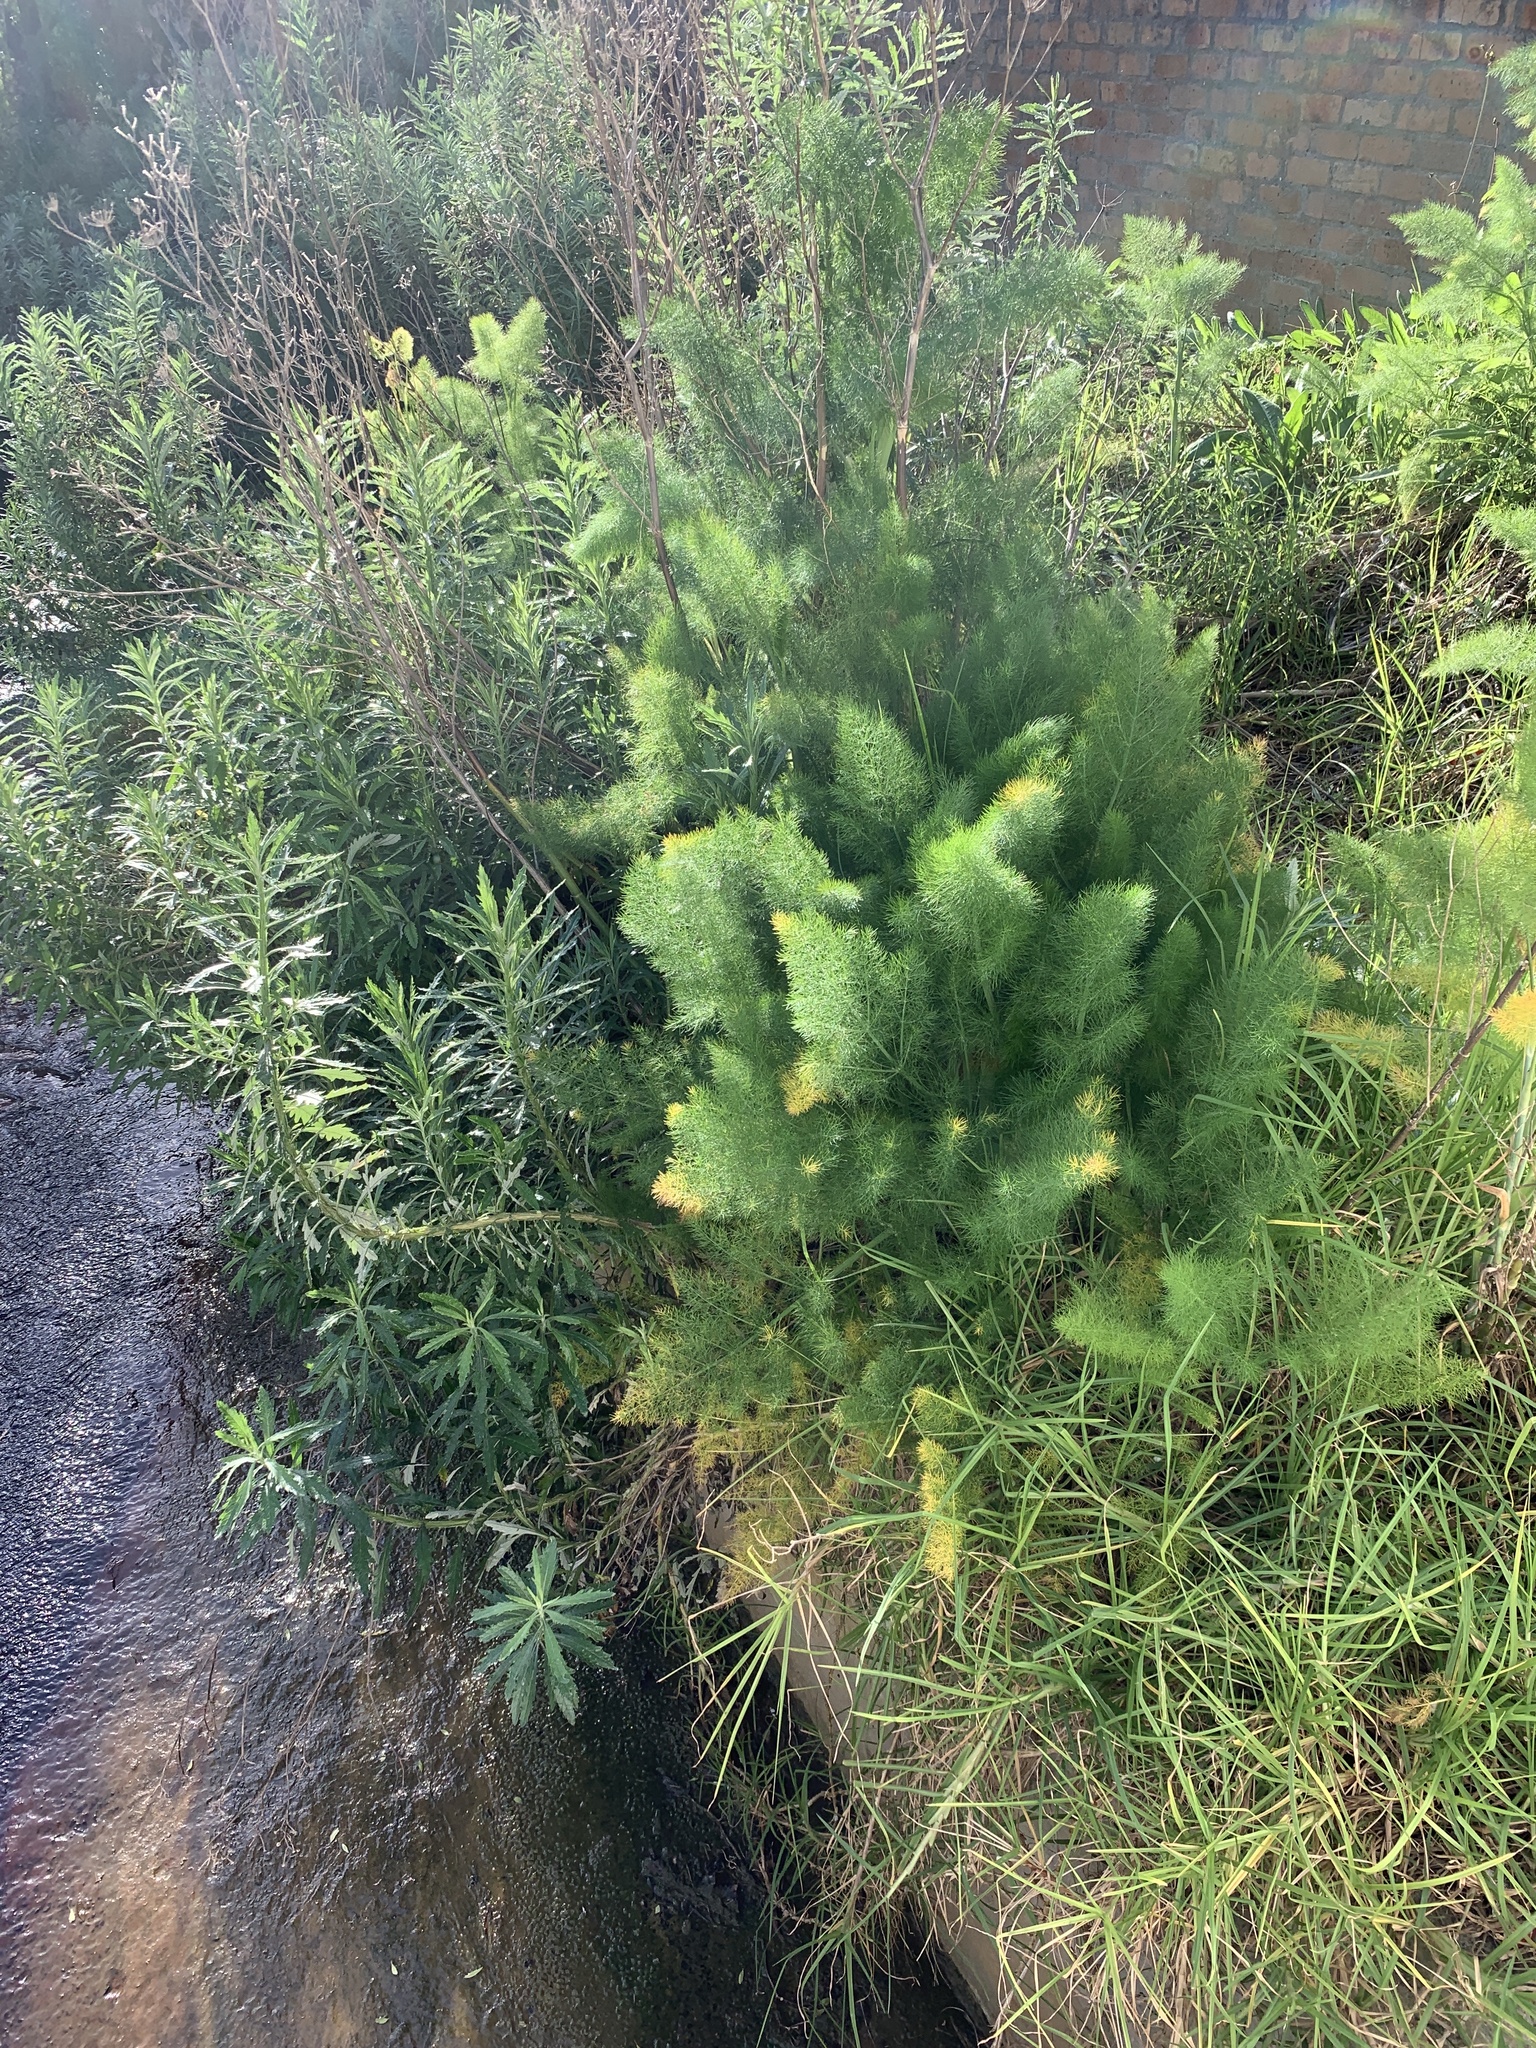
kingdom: Plantae
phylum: Tracheophyta
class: Magnoliopsida
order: Apiales
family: Apiaceae
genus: Foeniculum
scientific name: Foeniculum vulgare
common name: Fennel
